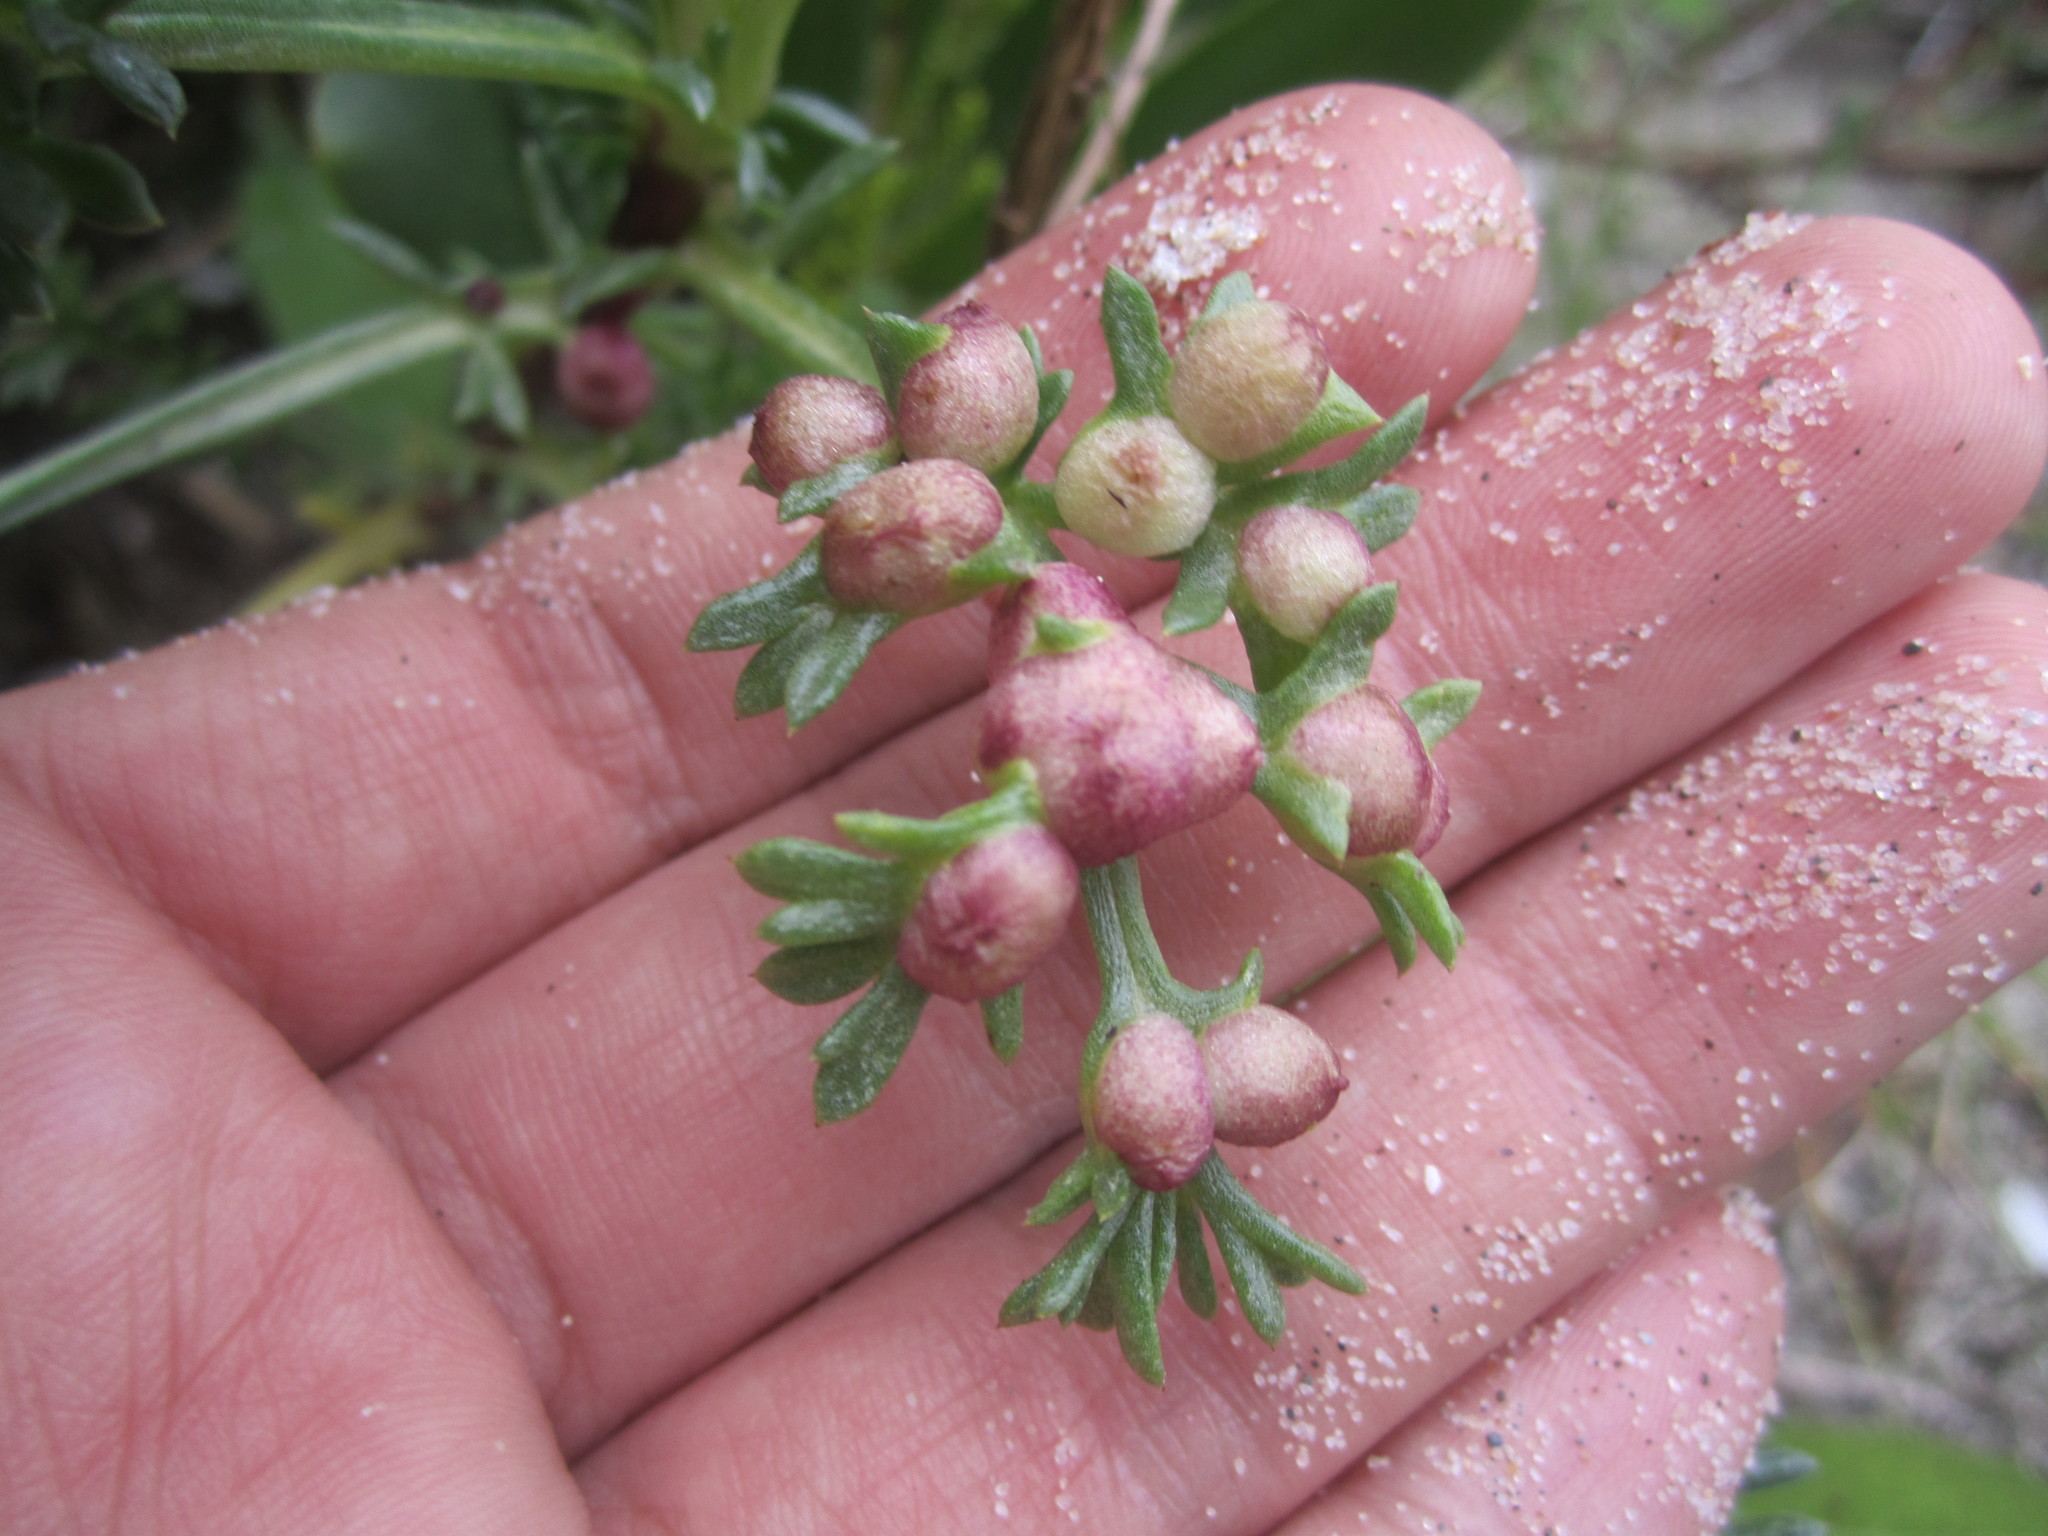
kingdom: Animalia
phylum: Arthropoda
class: Insecta
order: Diptera
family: Cecidomyiidae
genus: Rhopalomyia
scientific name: Rhopalomyia baccarum
